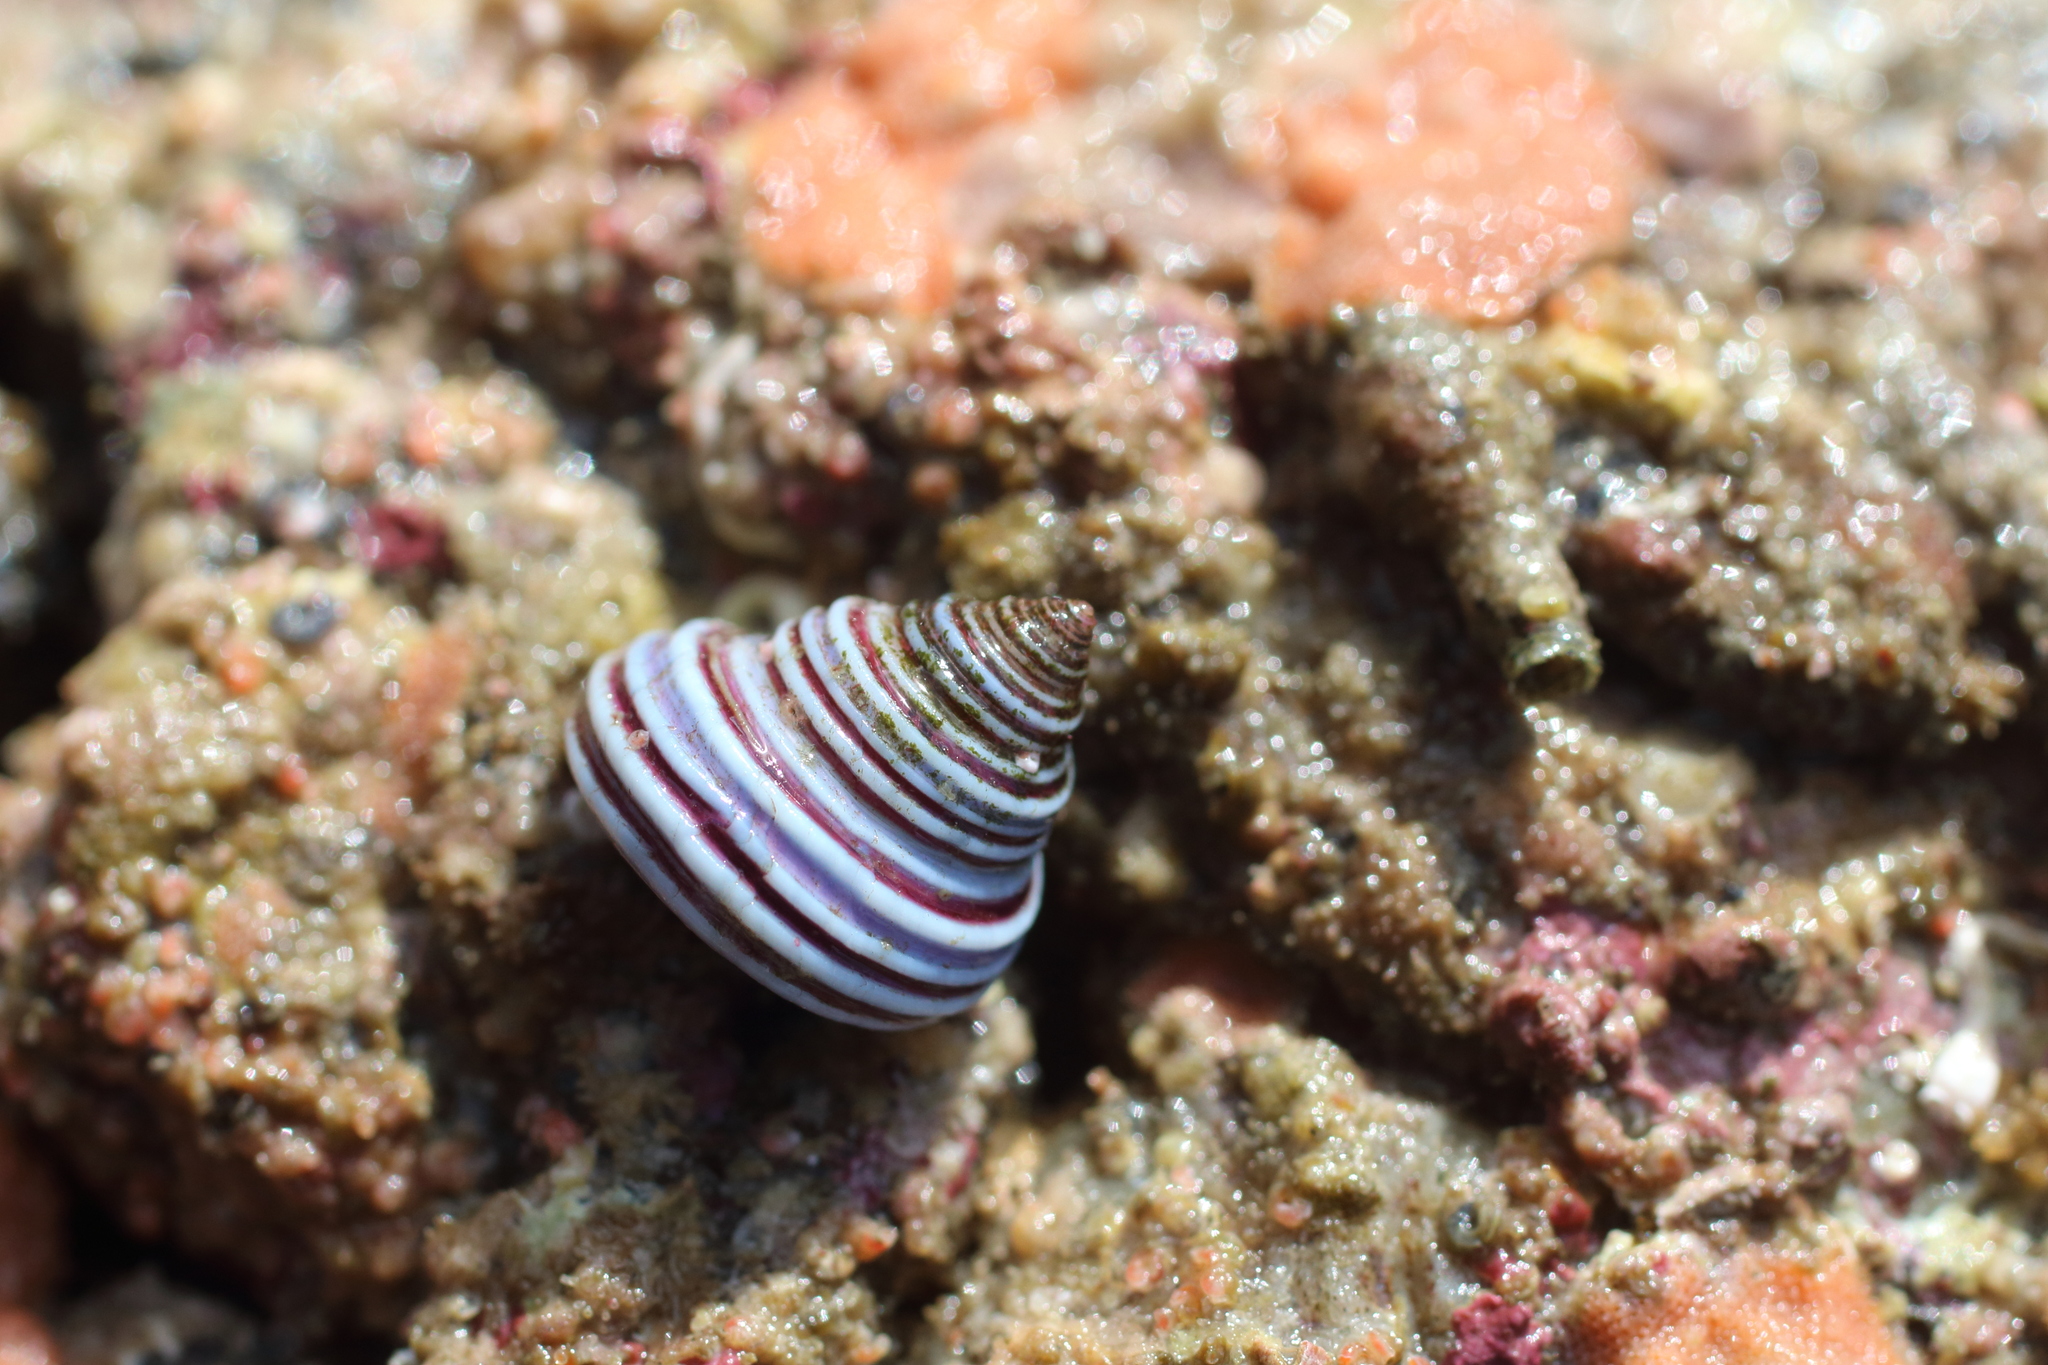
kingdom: Animalia
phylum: Mollusca
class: Gastropoda
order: Trochida
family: Calliostomatidae
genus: Calliostoma
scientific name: Calliostoma ligatum
